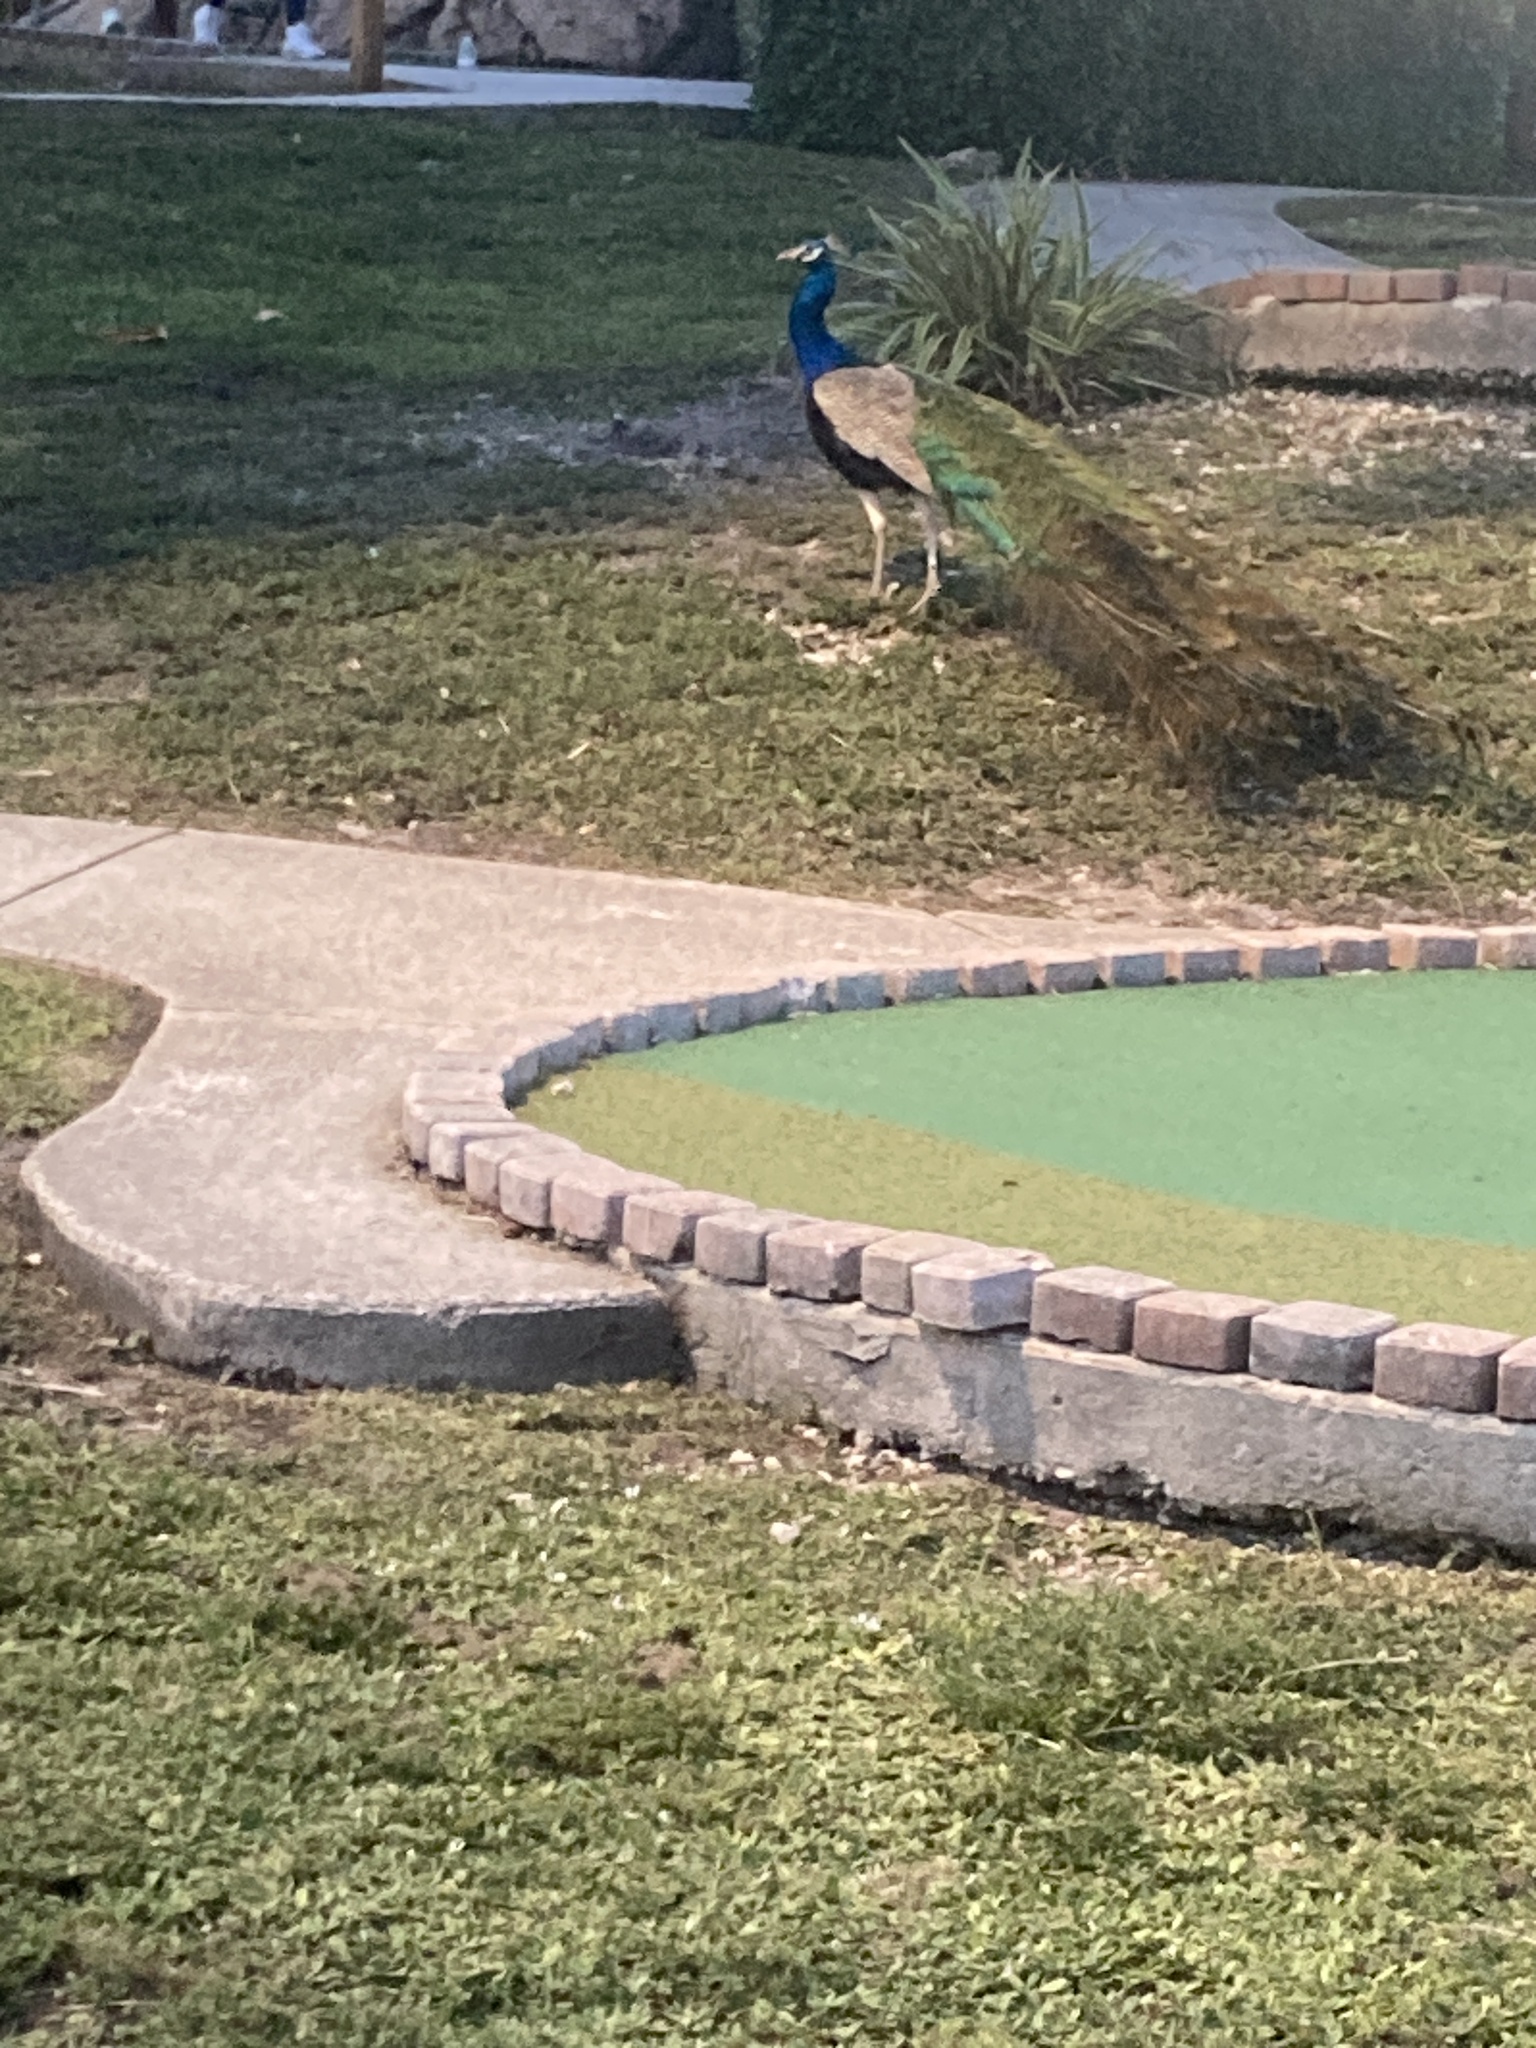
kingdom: Animalia
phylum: Chordata
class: Aves
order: Galliformes
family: Phasianidae
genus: Pavo
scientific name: Pavo cristatus
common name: Indian peafowl
